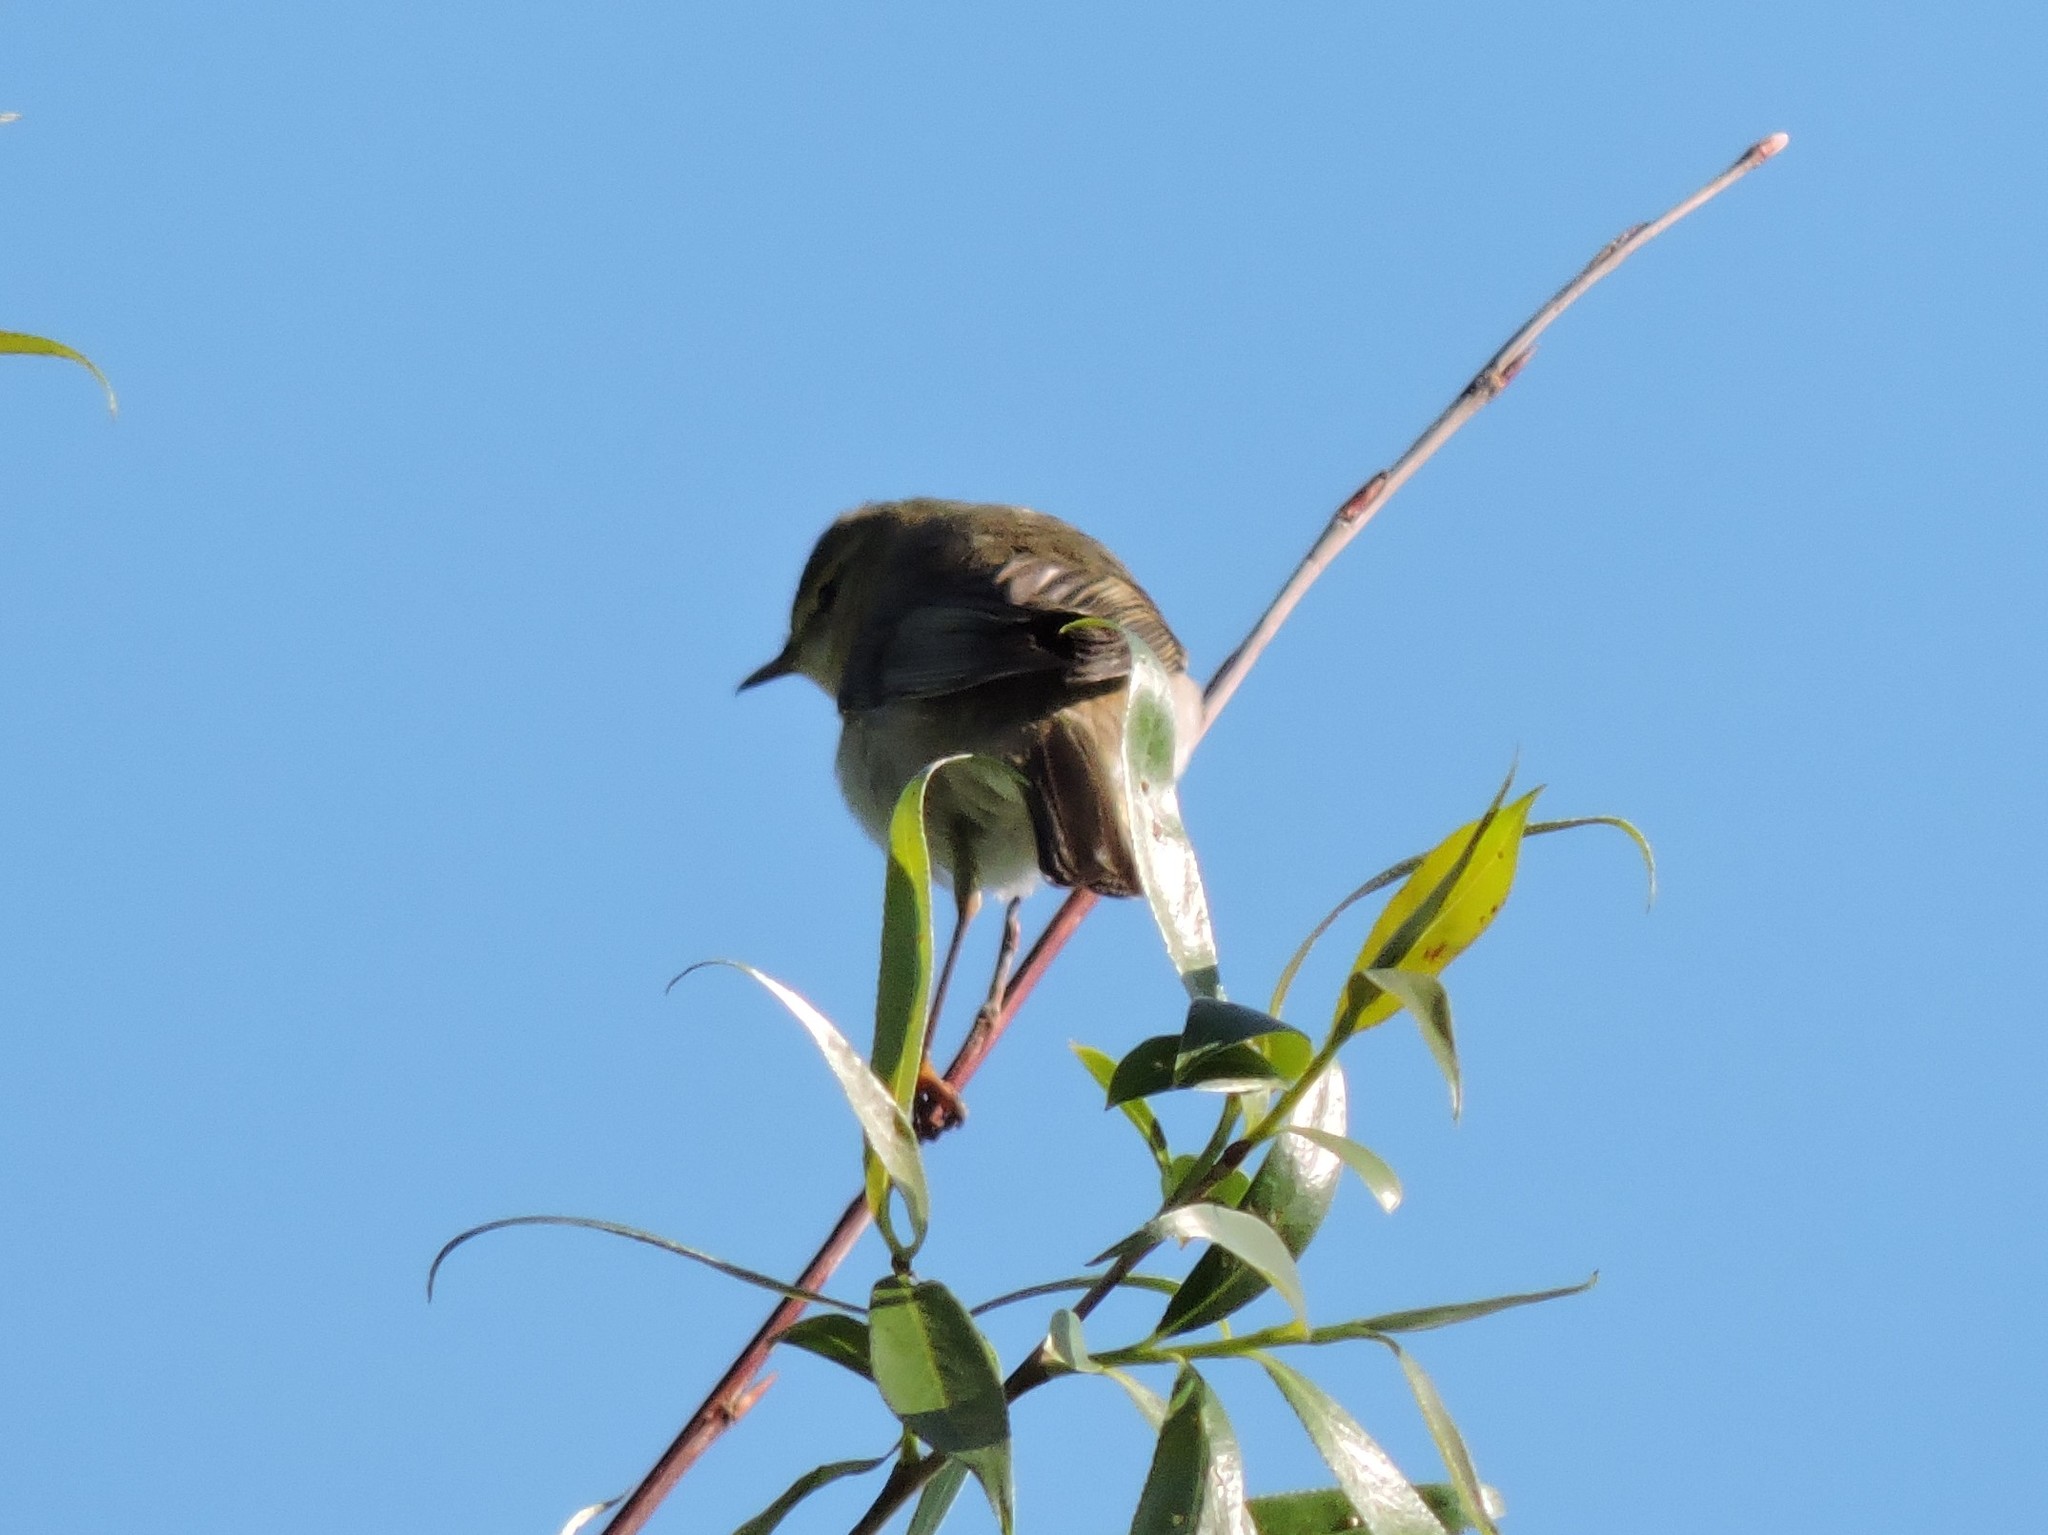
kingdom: Animalia
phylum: Chordata
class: Aves
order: Passeriformes
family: Phylloscopidae
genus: Phylloscopus
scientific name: Phylloscopus collybita
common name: Common chiffchaff
